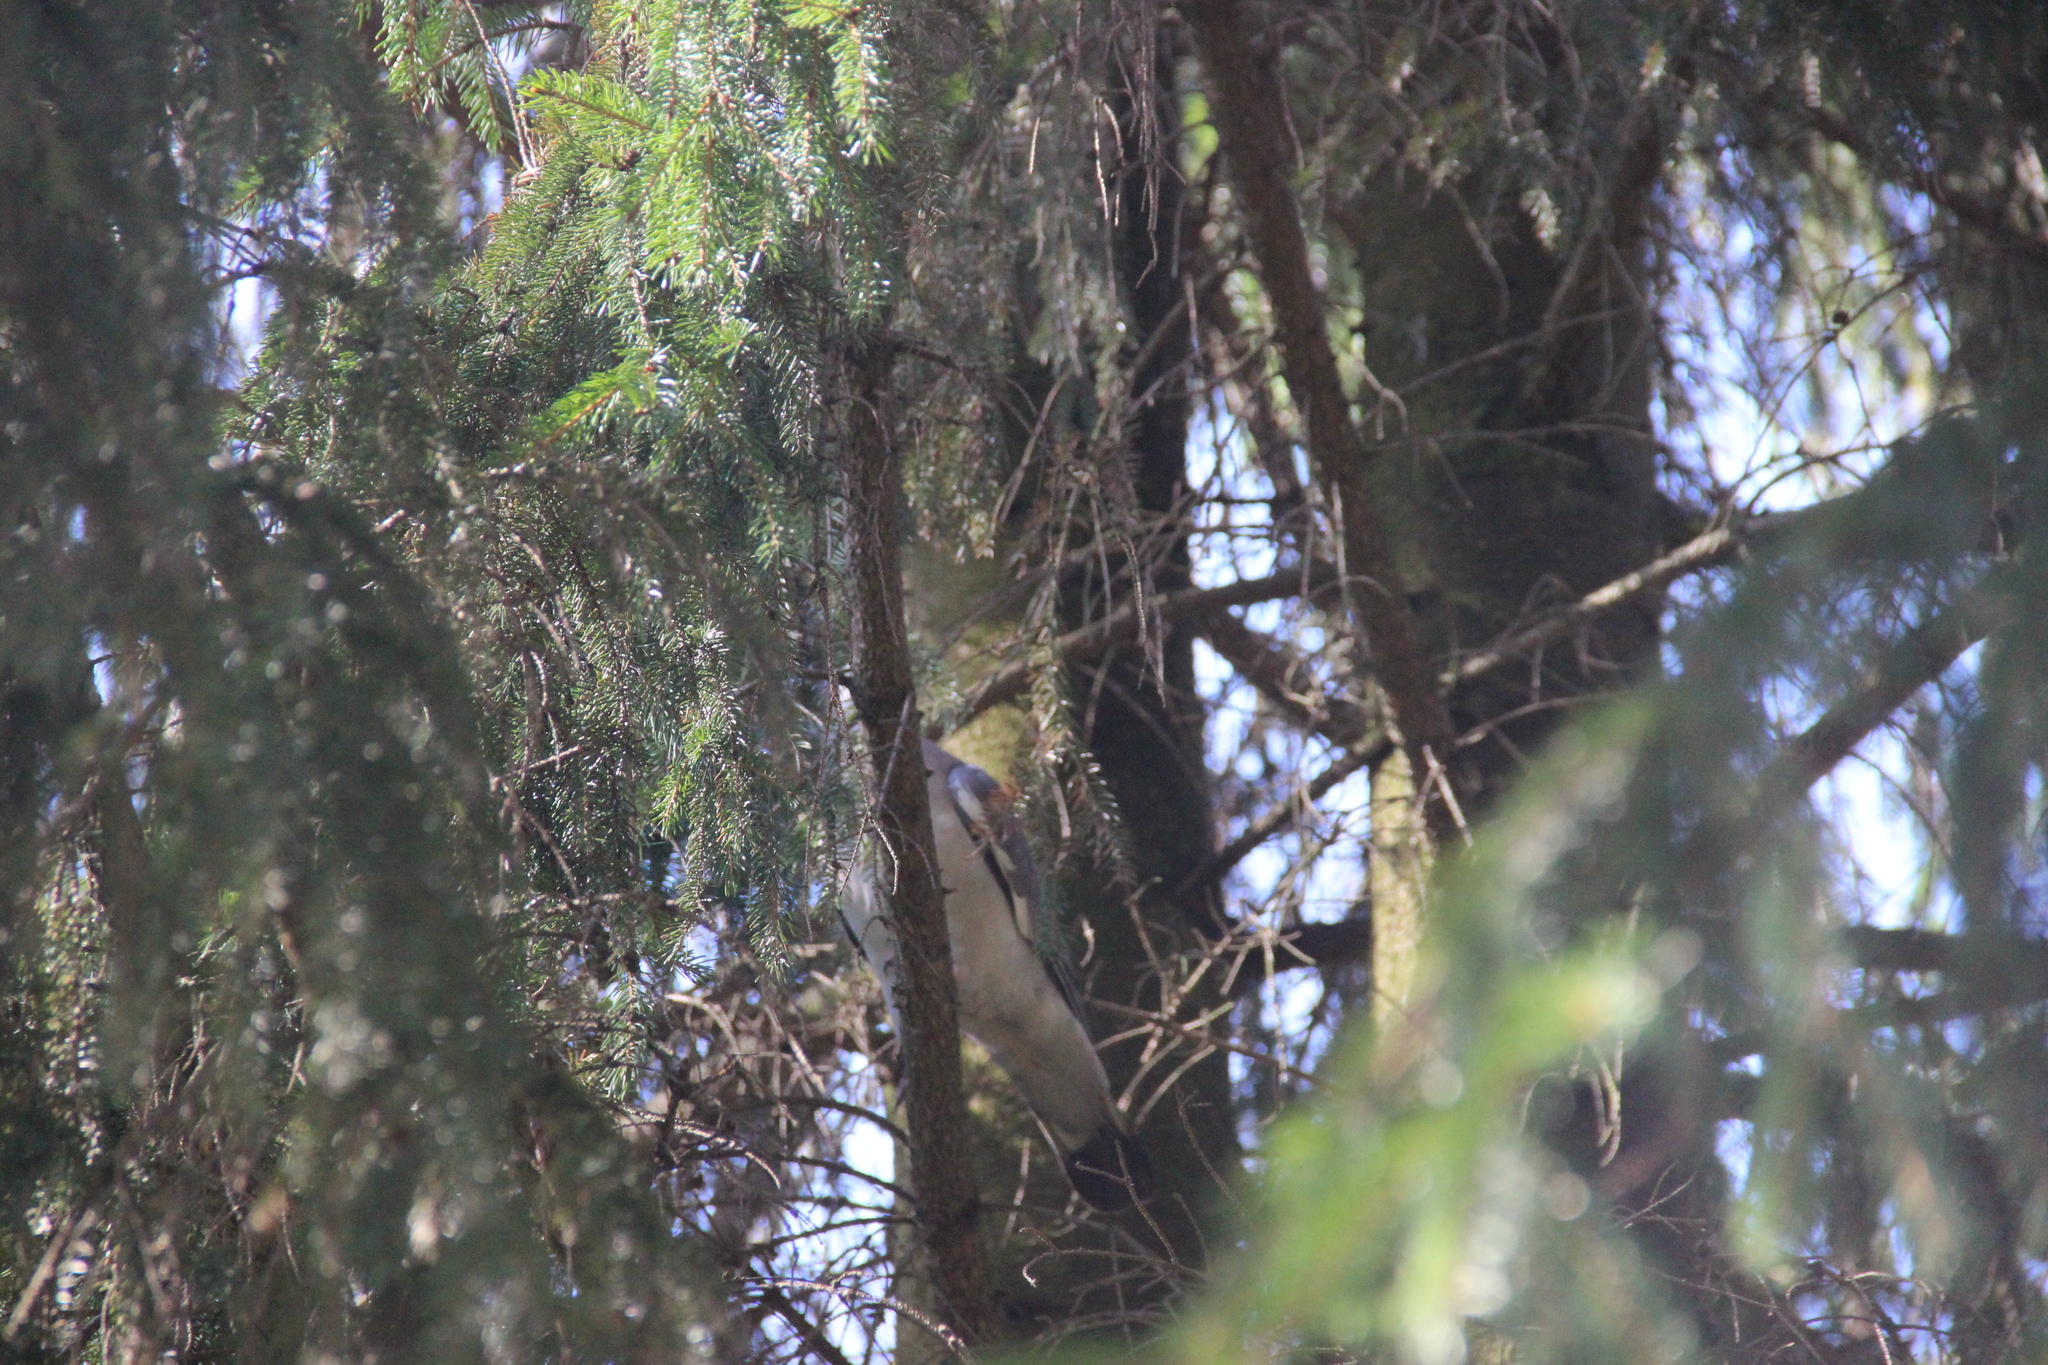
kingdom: Animalia
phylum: Chordata
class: Aves
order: Columbiformes
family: Columbidae
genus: Columba
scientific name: Columba palumbus
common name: Common wood pigeon
